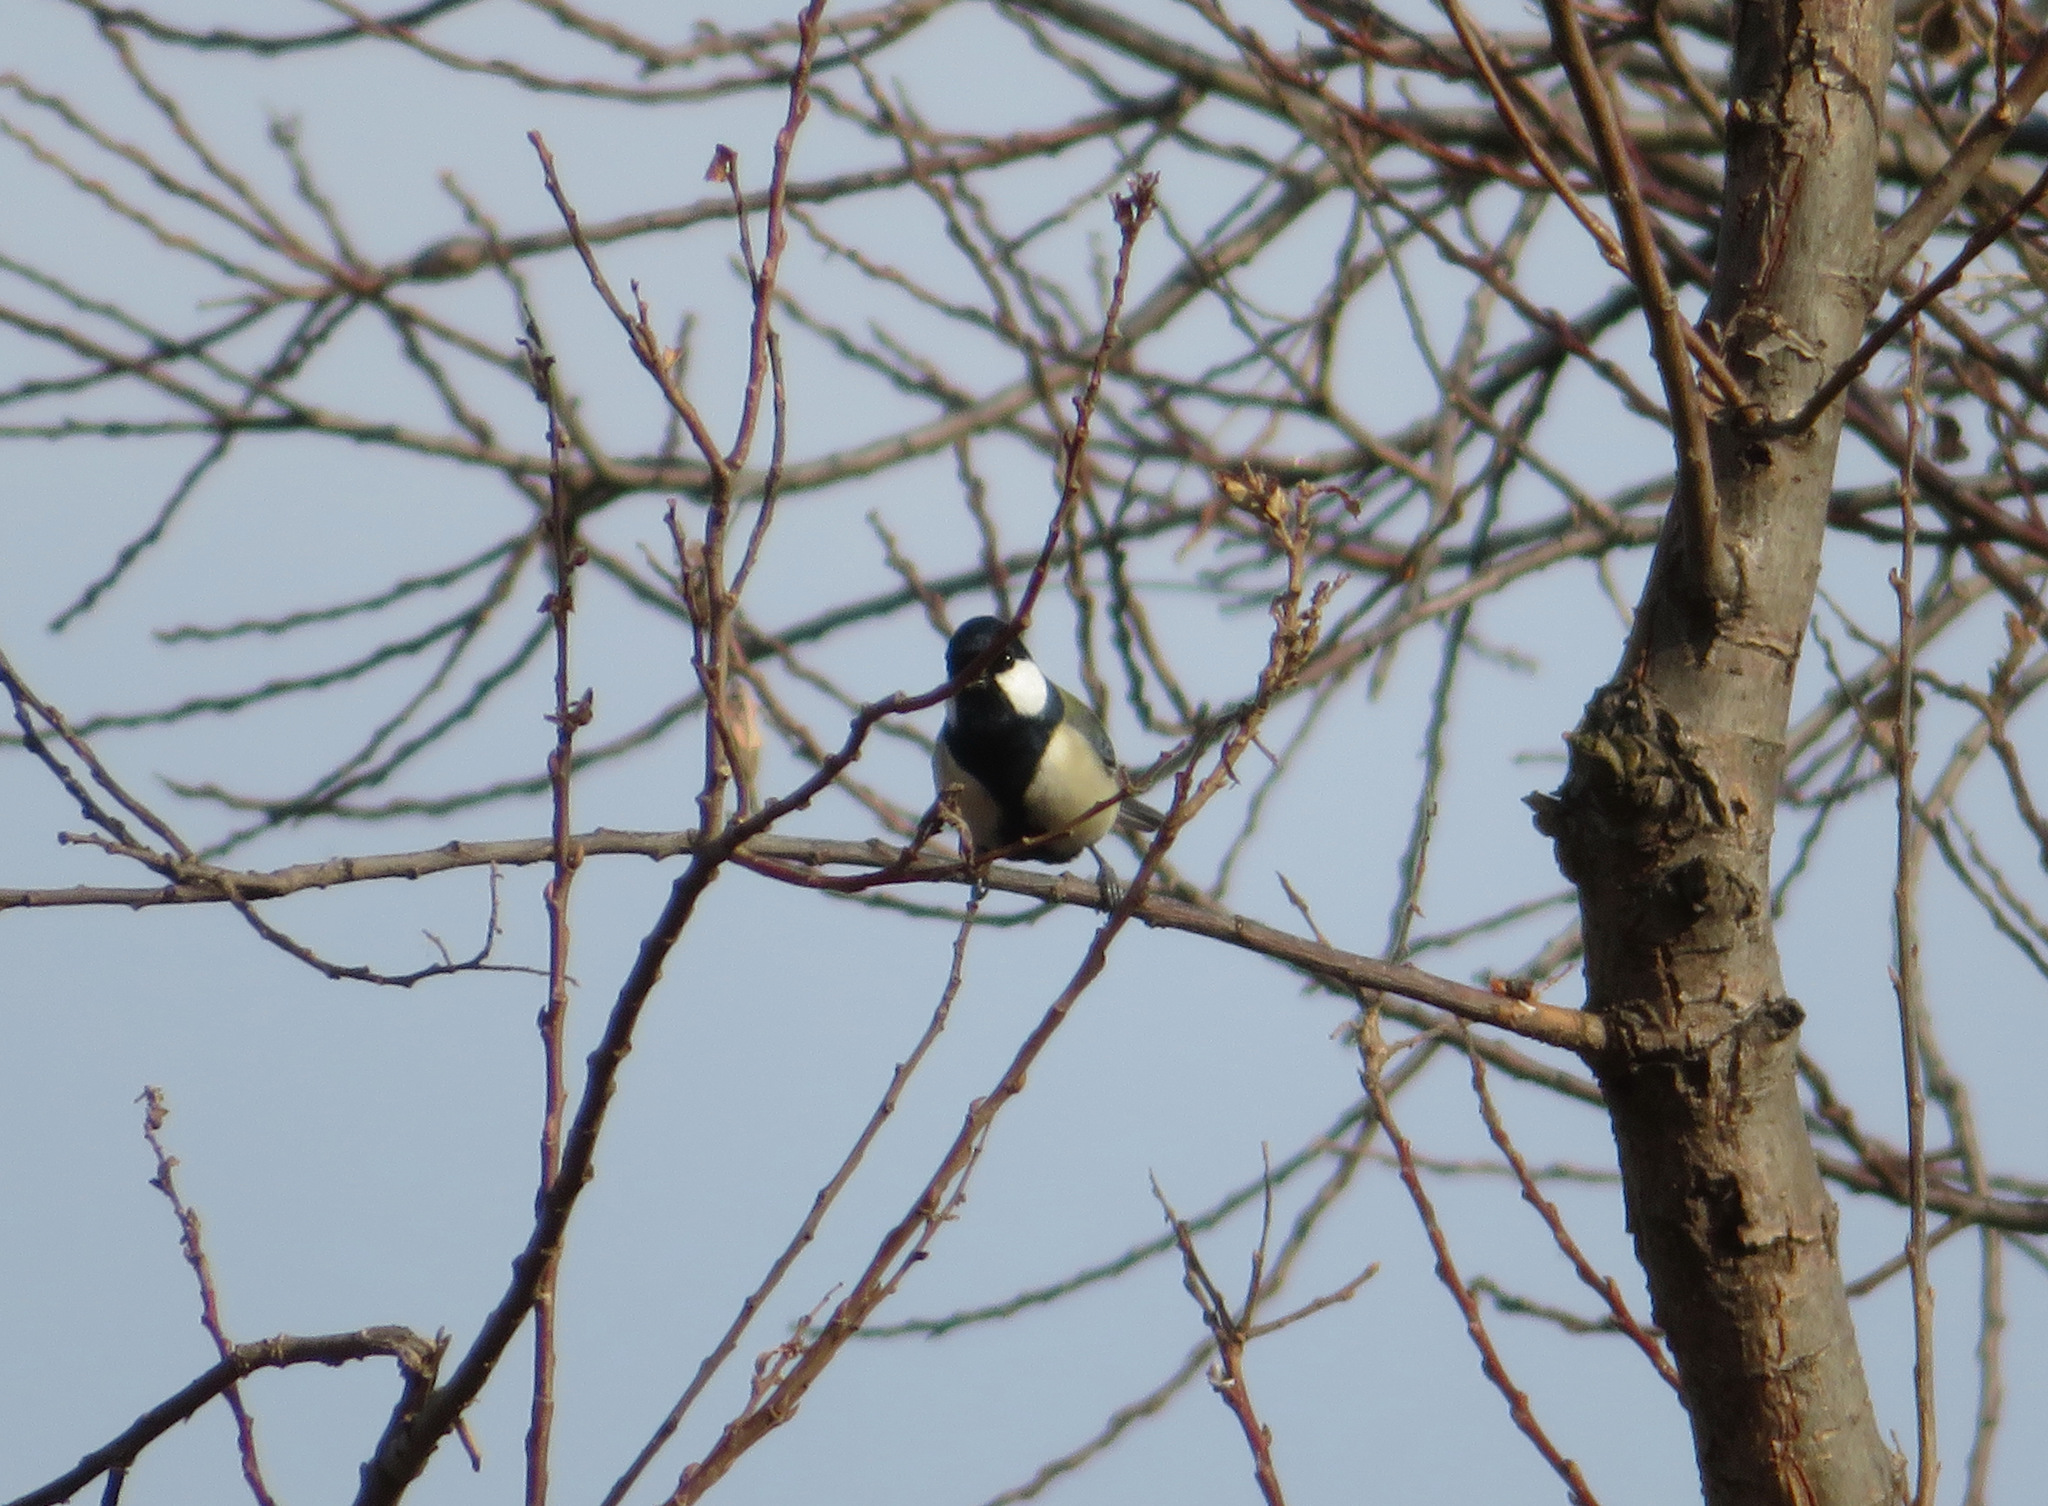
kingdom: Animalia
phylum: Chordata
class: Aves
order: Passeriformes
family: Paridae
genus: Parus
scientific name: Parus minor
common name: Japanese tit
